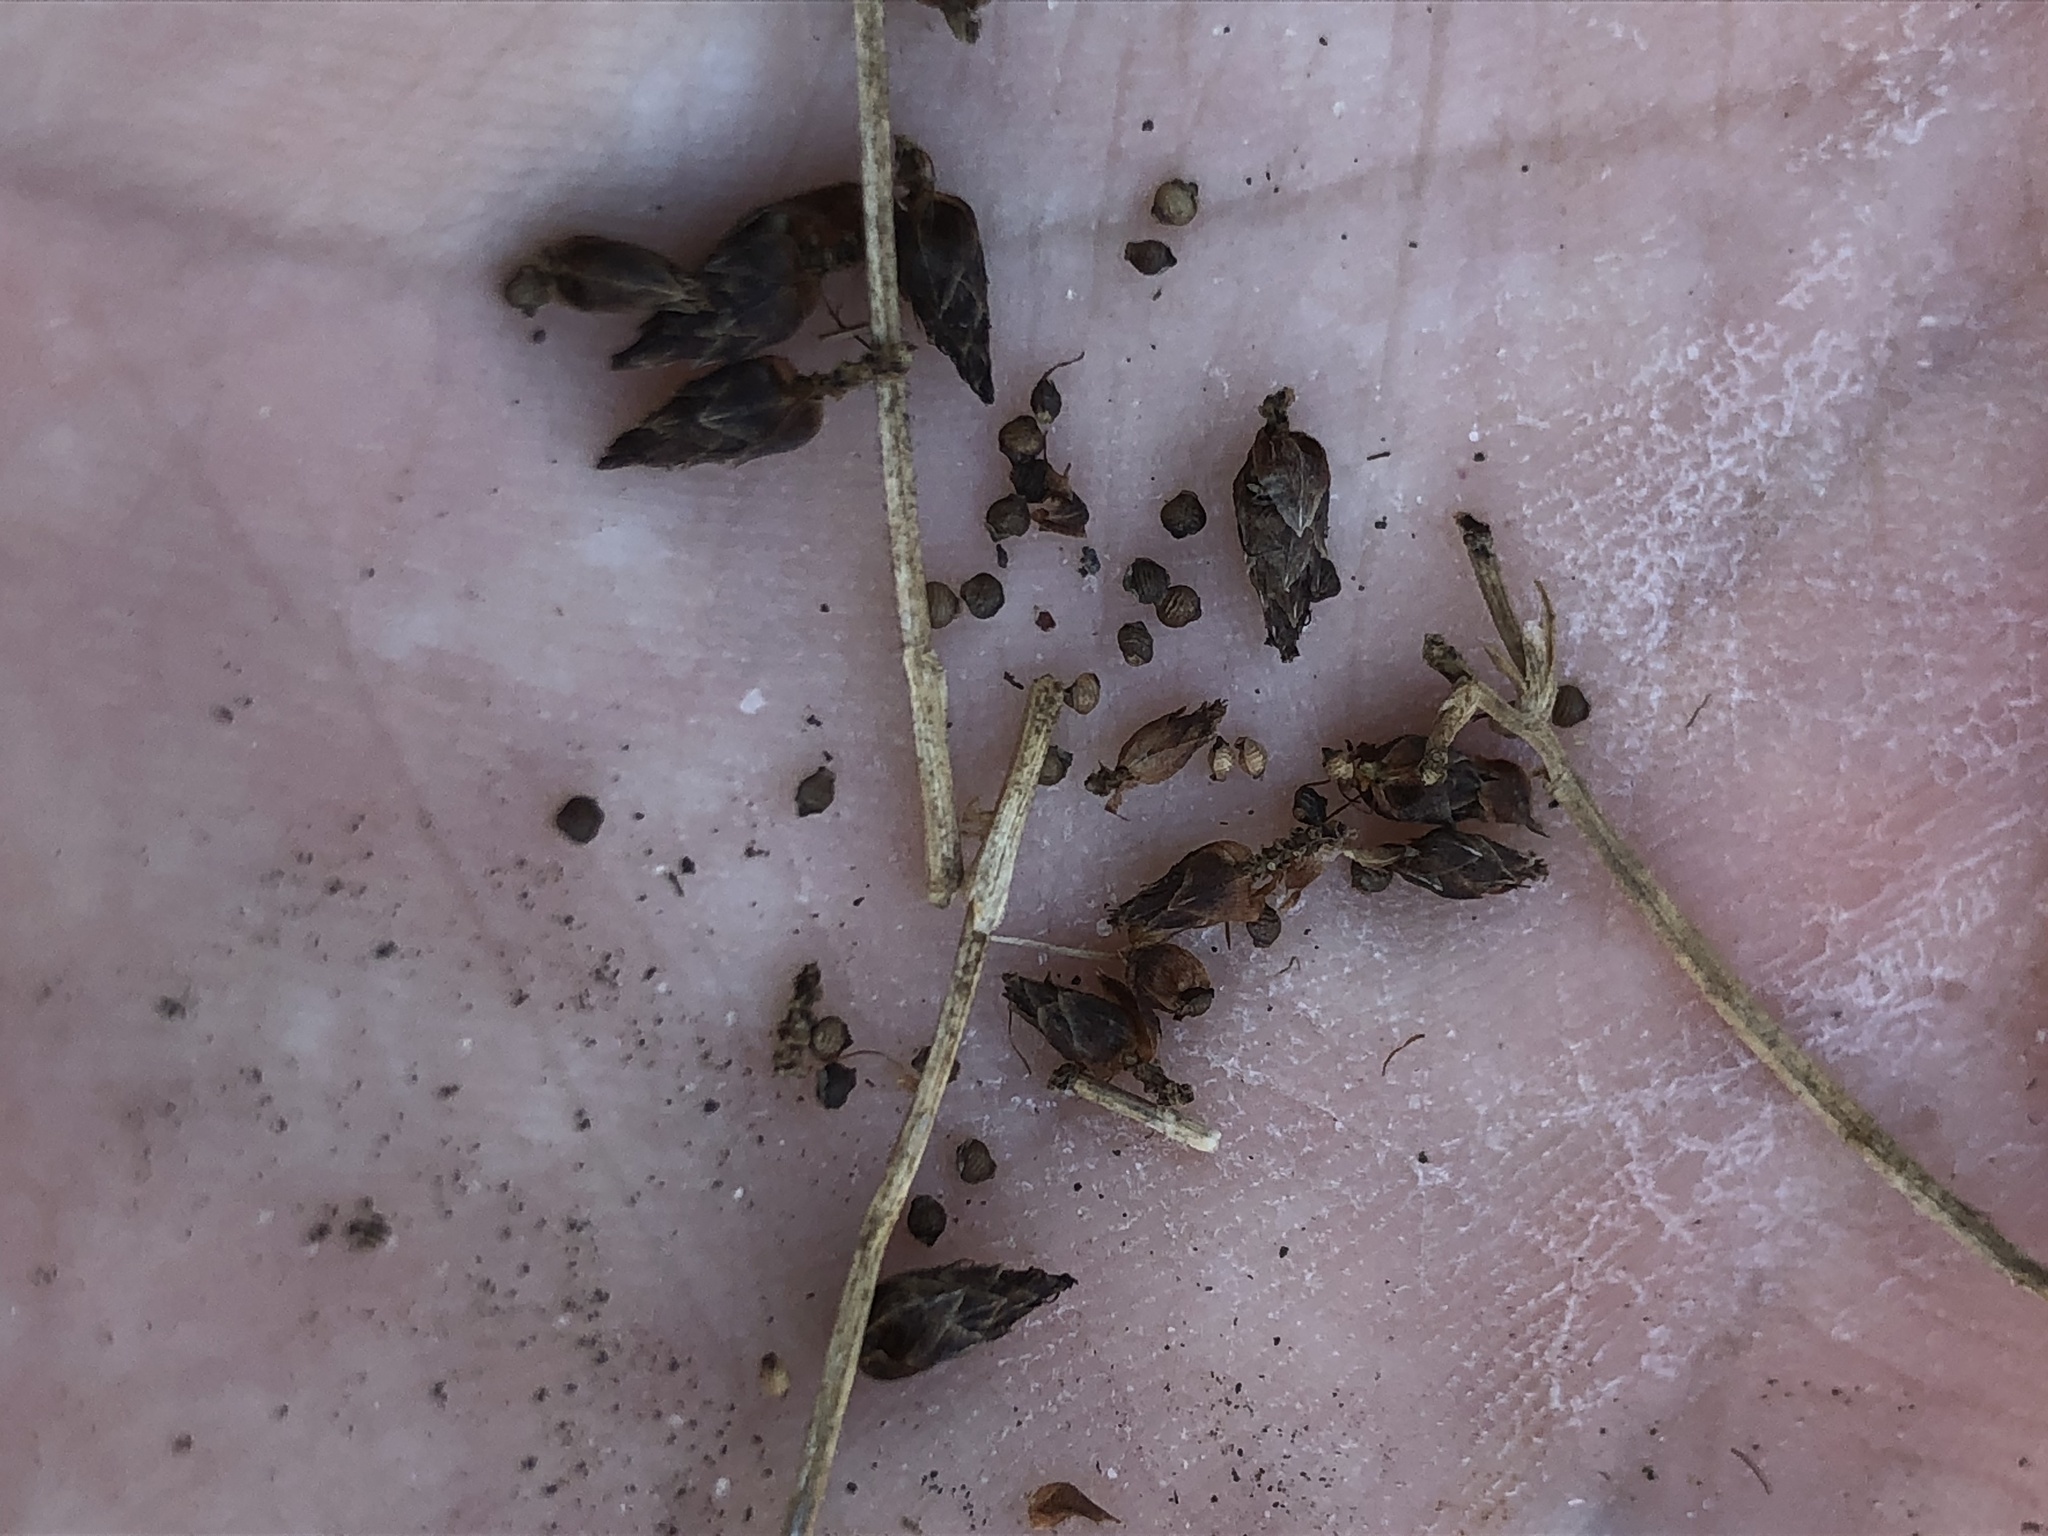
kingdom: Plantae
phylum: Tracheophyta
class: Liliopsida
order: Poales
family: Cyperaceae
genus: Rhynchospora
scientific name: Rhynchospora nitens
